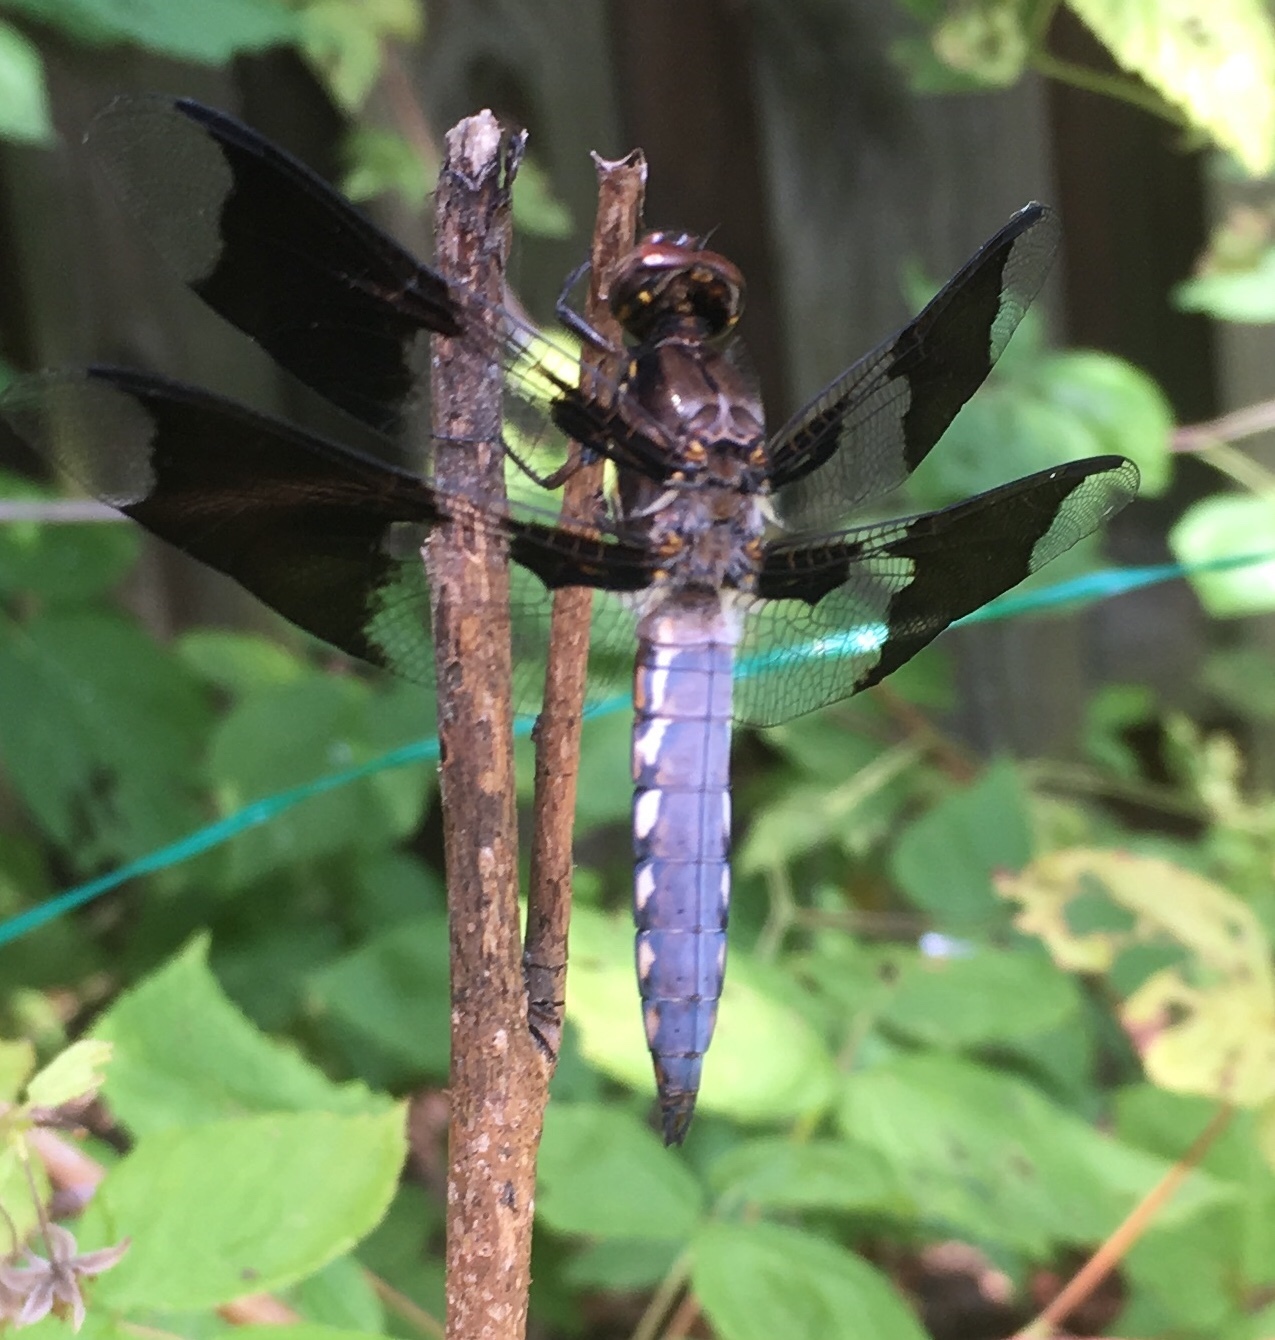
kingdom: Animalia
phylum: Arthropoda
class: Insecta
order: Odonata
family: Libellulidae
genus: Plathemis
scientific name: Plathemis lydia
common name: Common whitetail
